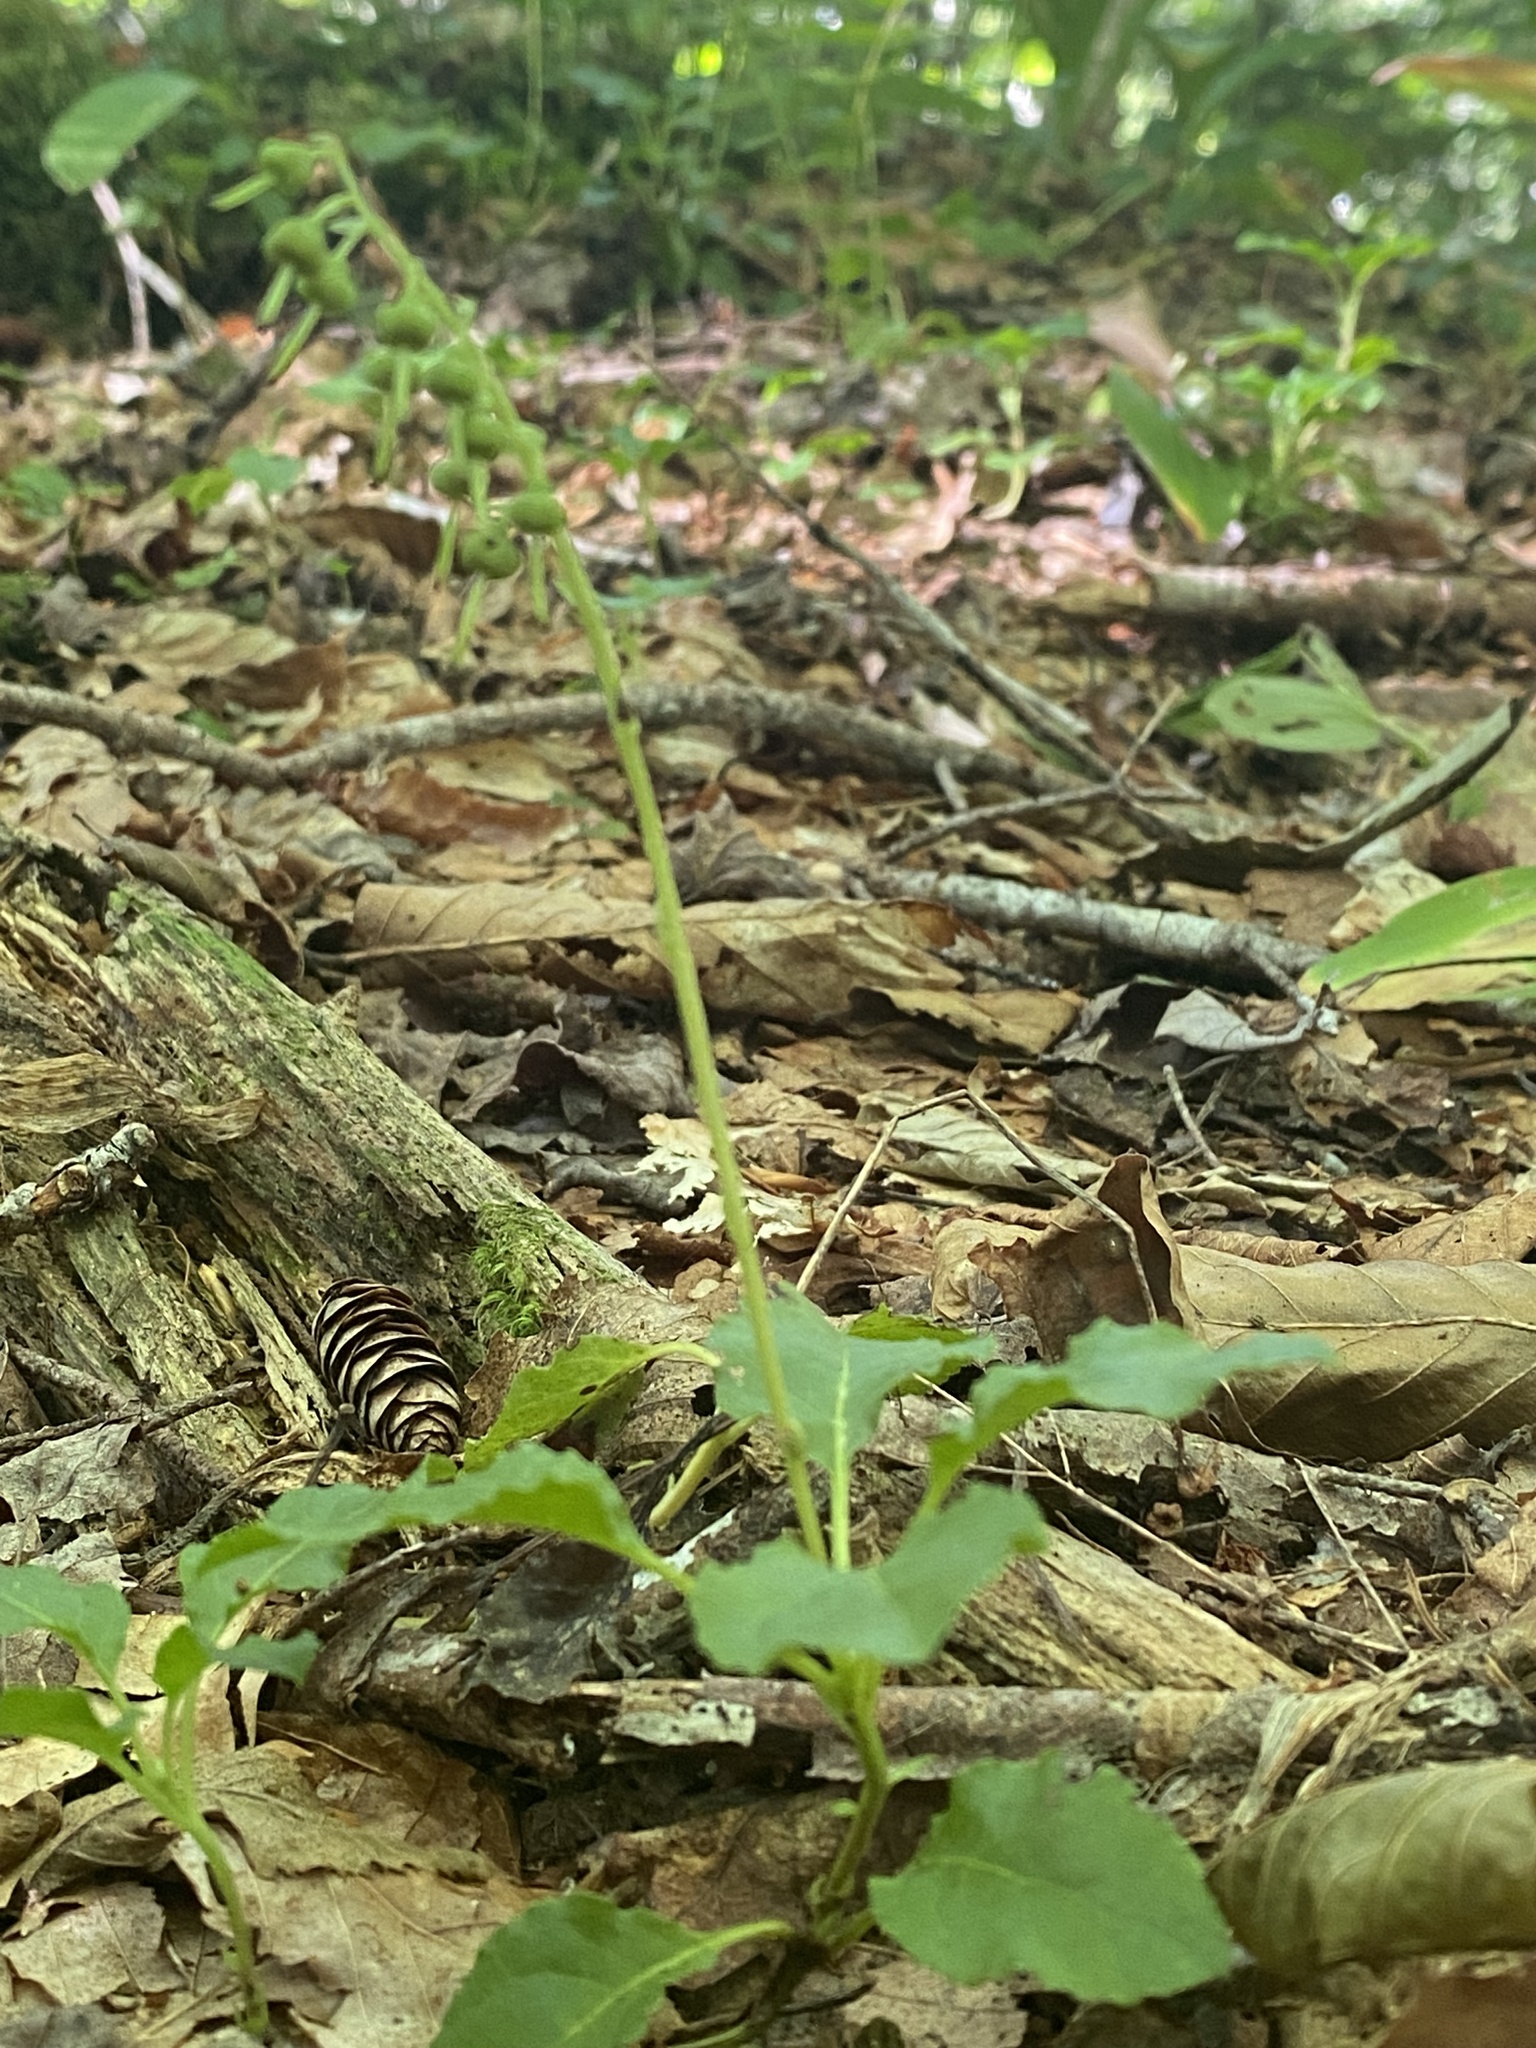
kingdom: Plantae
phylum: Tracheophyta
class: Magnoliopsida
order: Ericales
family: Ericaceae
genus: Orthilia
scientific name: Orthilia secunda
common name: One-sided orthilia
